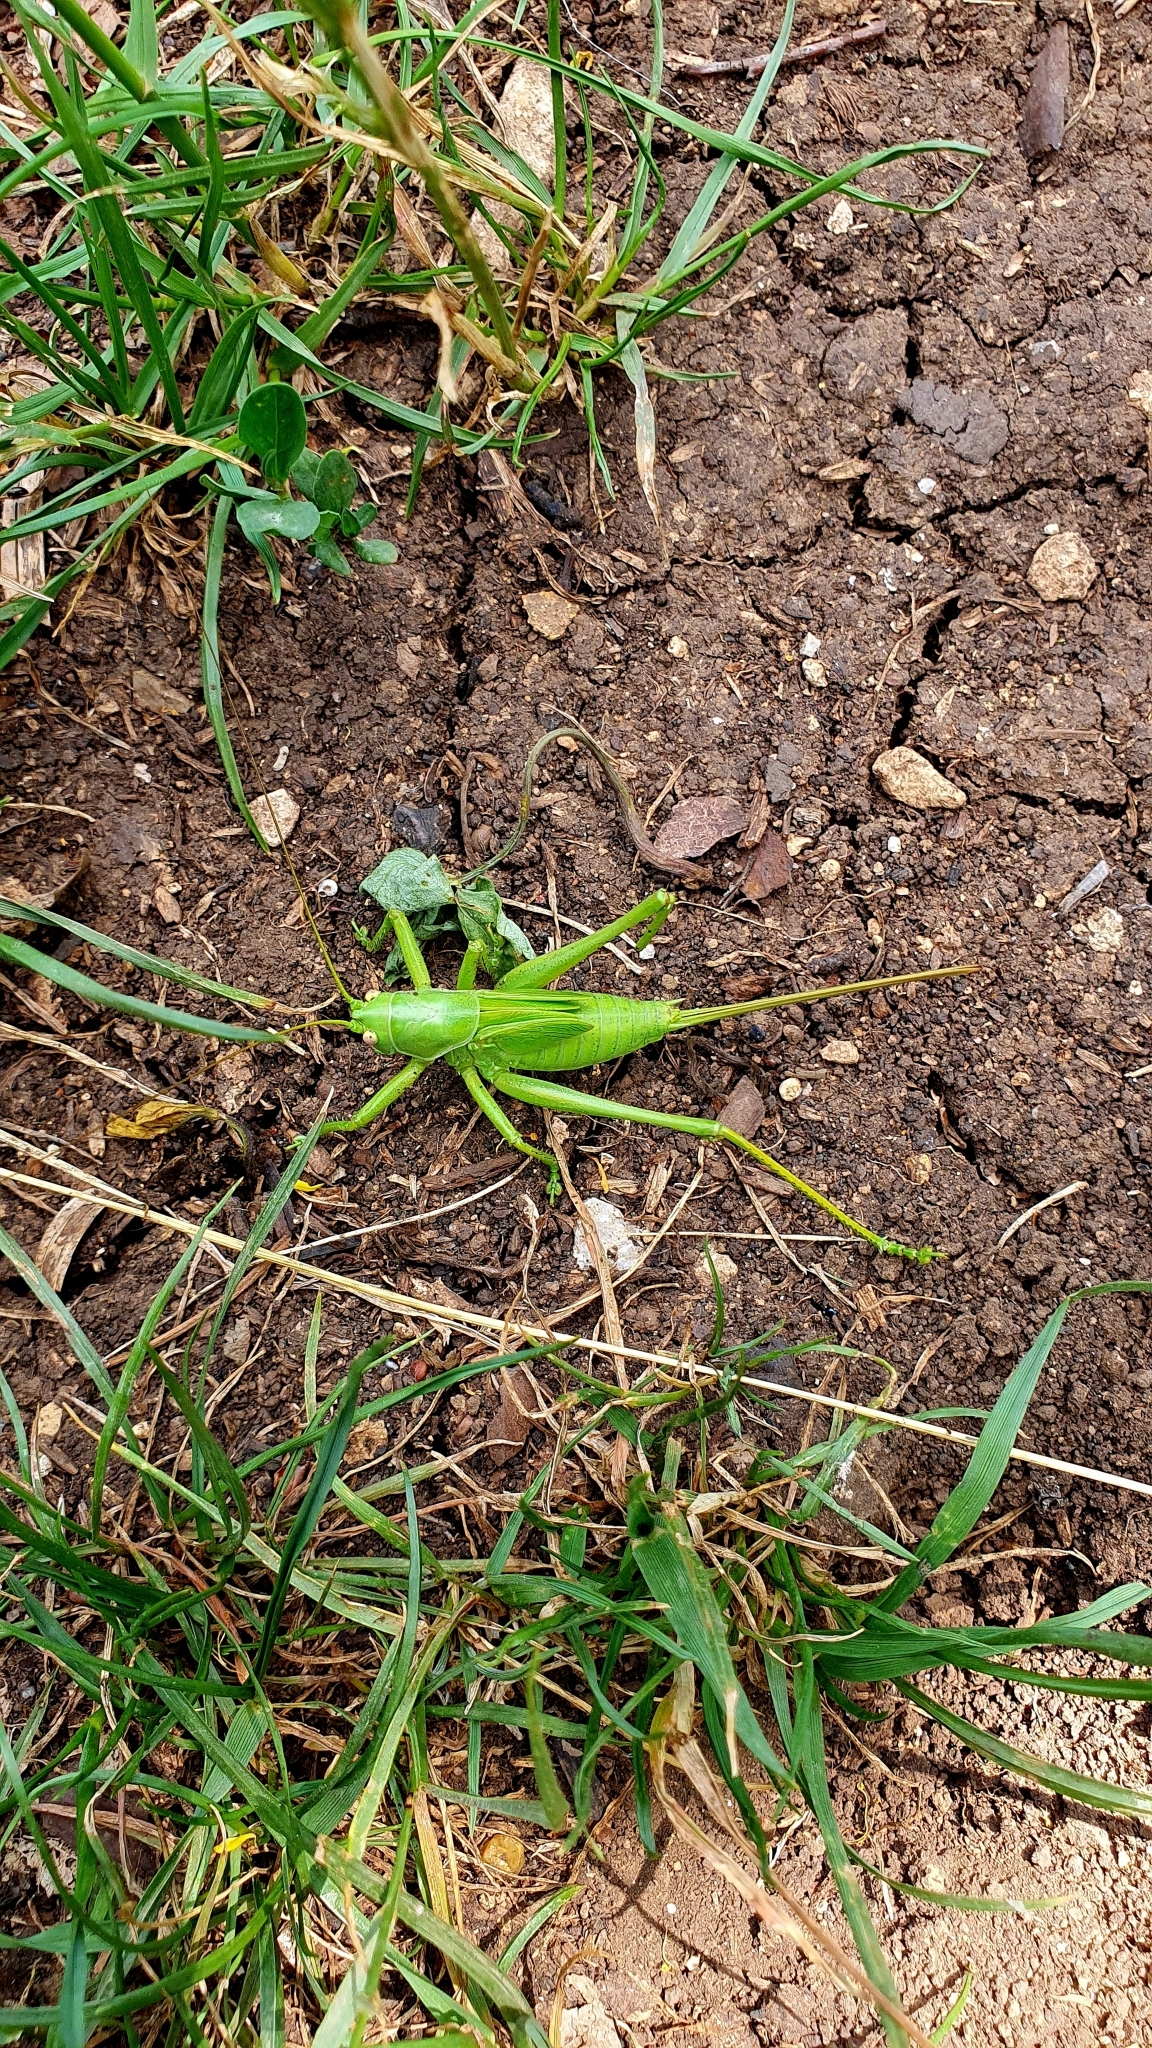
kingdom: Animalia
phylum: Arthropoda
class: Insecta
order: Orthoptera
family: Tettigoniidae
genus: Tettigonia
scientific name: Tettigonia caudata
